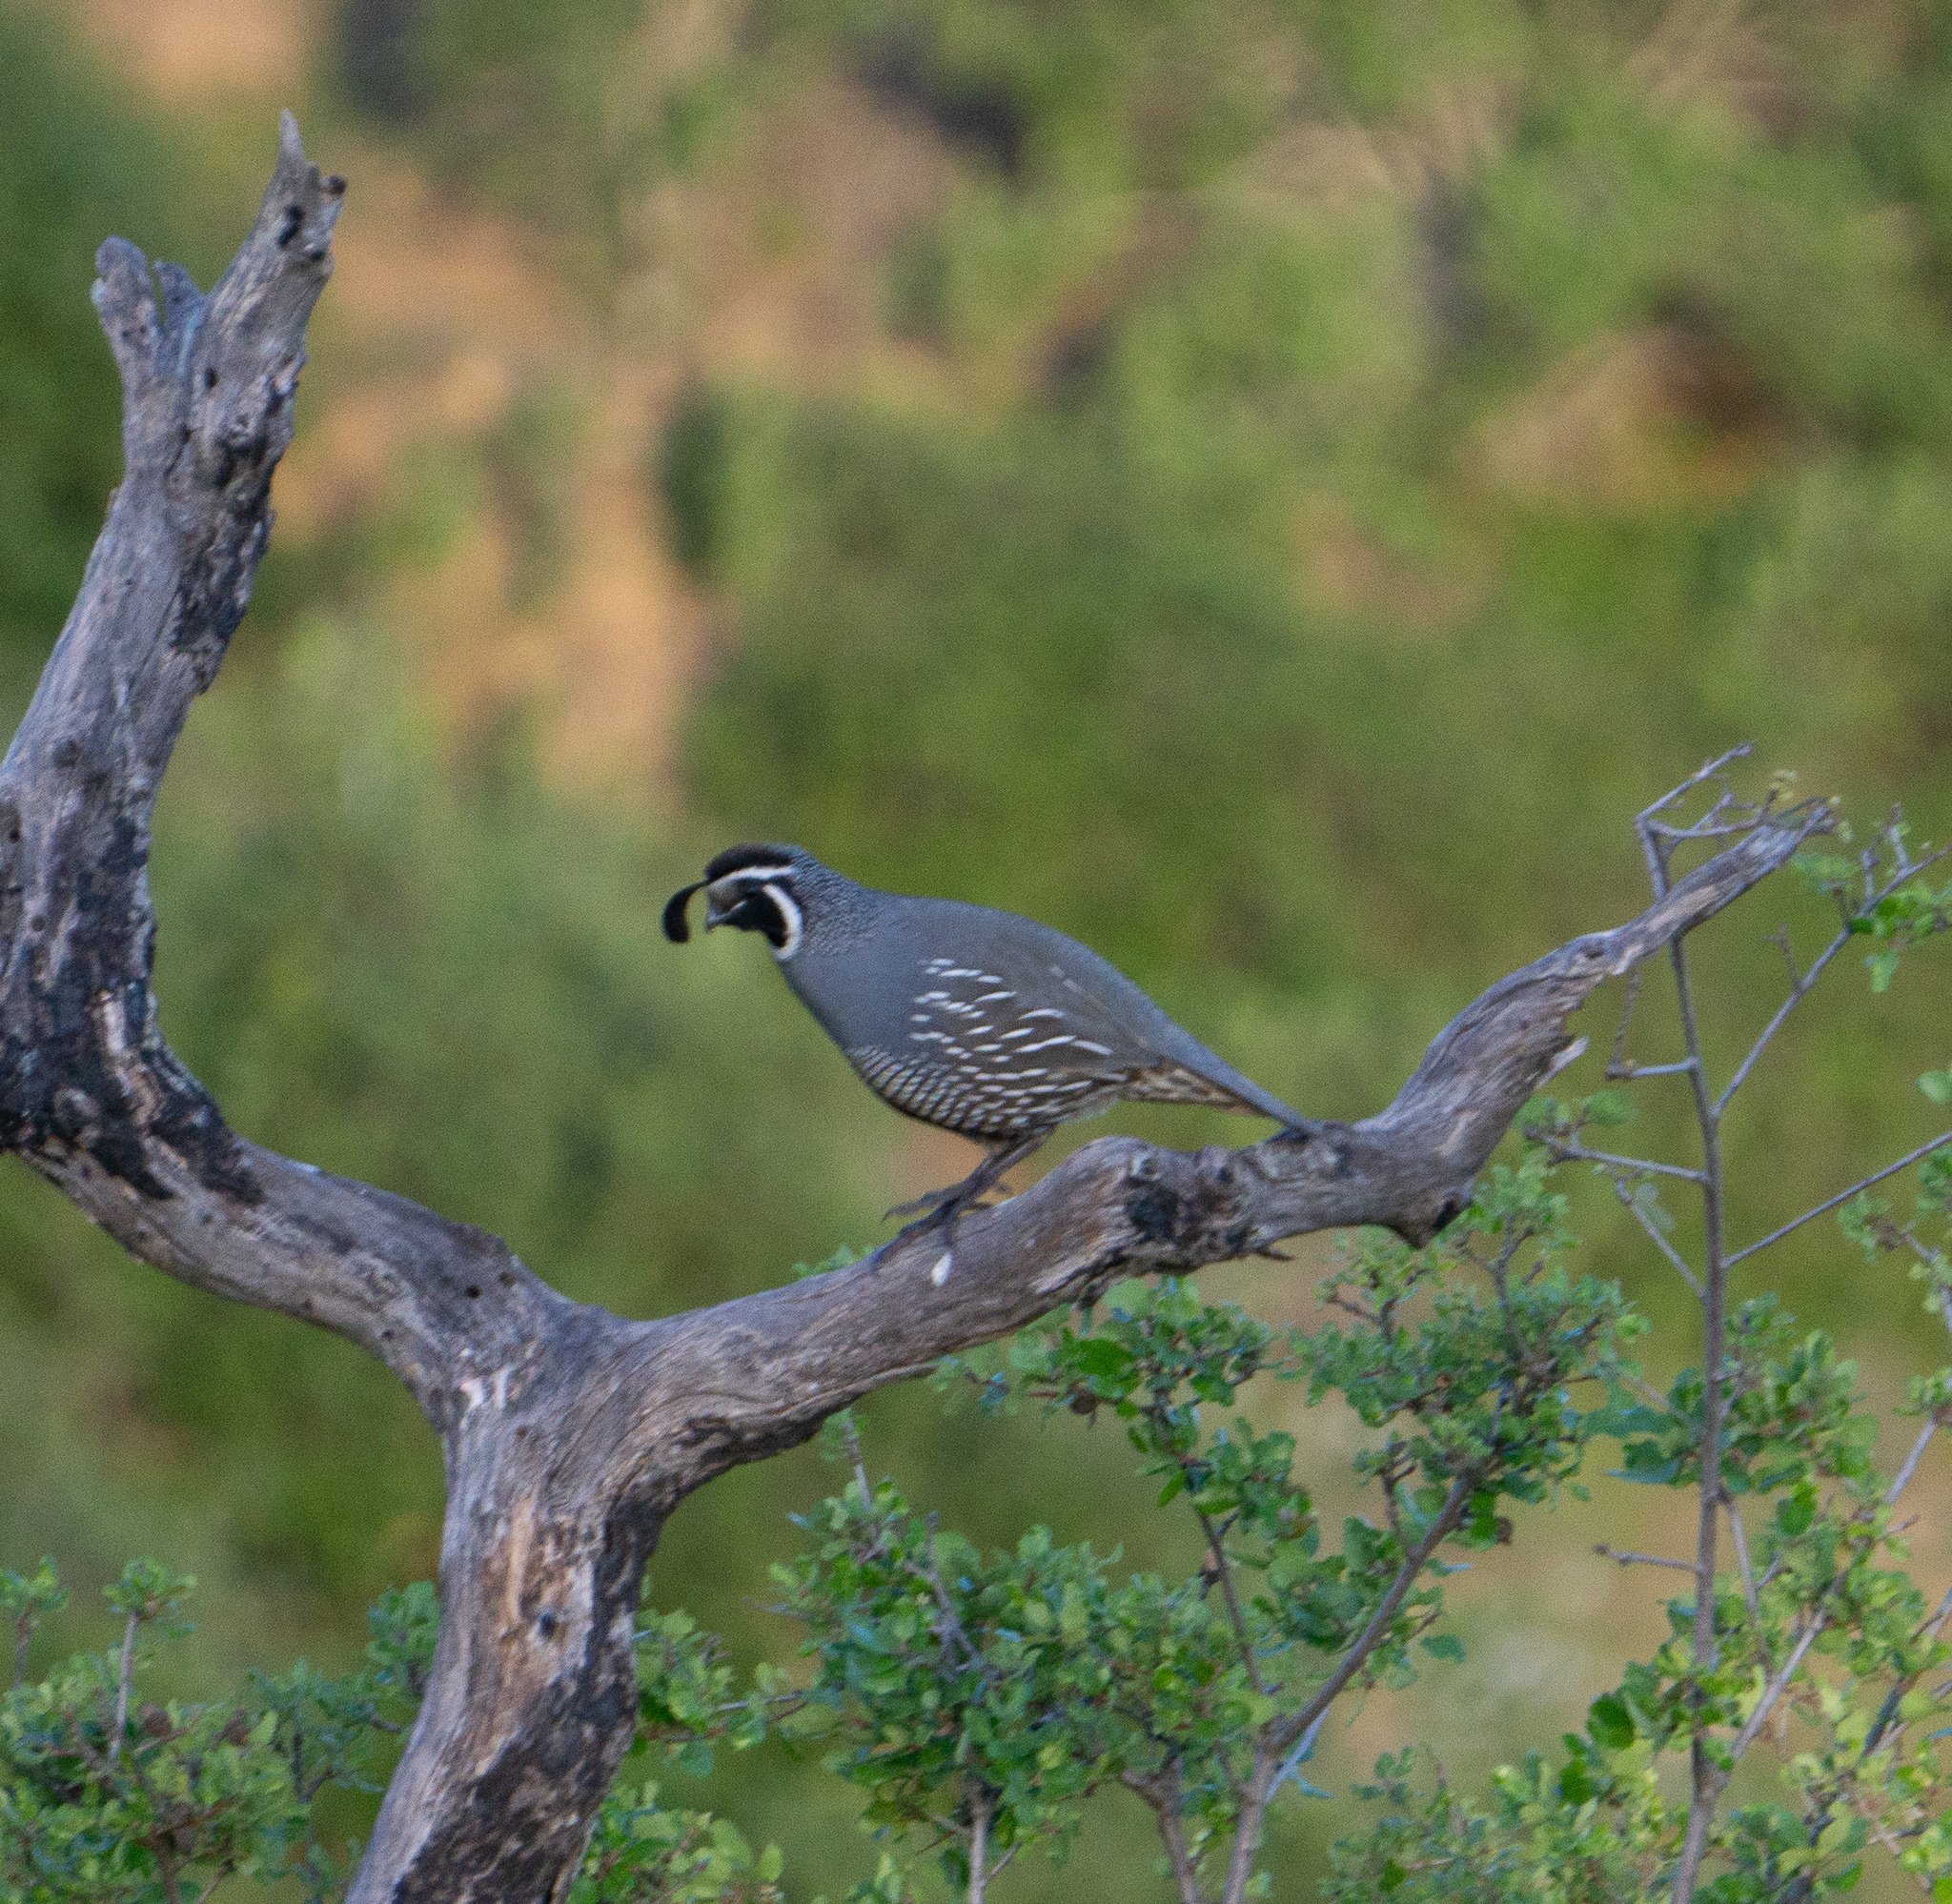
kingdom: Animalia
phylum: Chordata
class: Aves
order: Galliformes
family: Odontophoridae
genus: Callipepla
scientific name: Callipepla californica
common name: California quail
